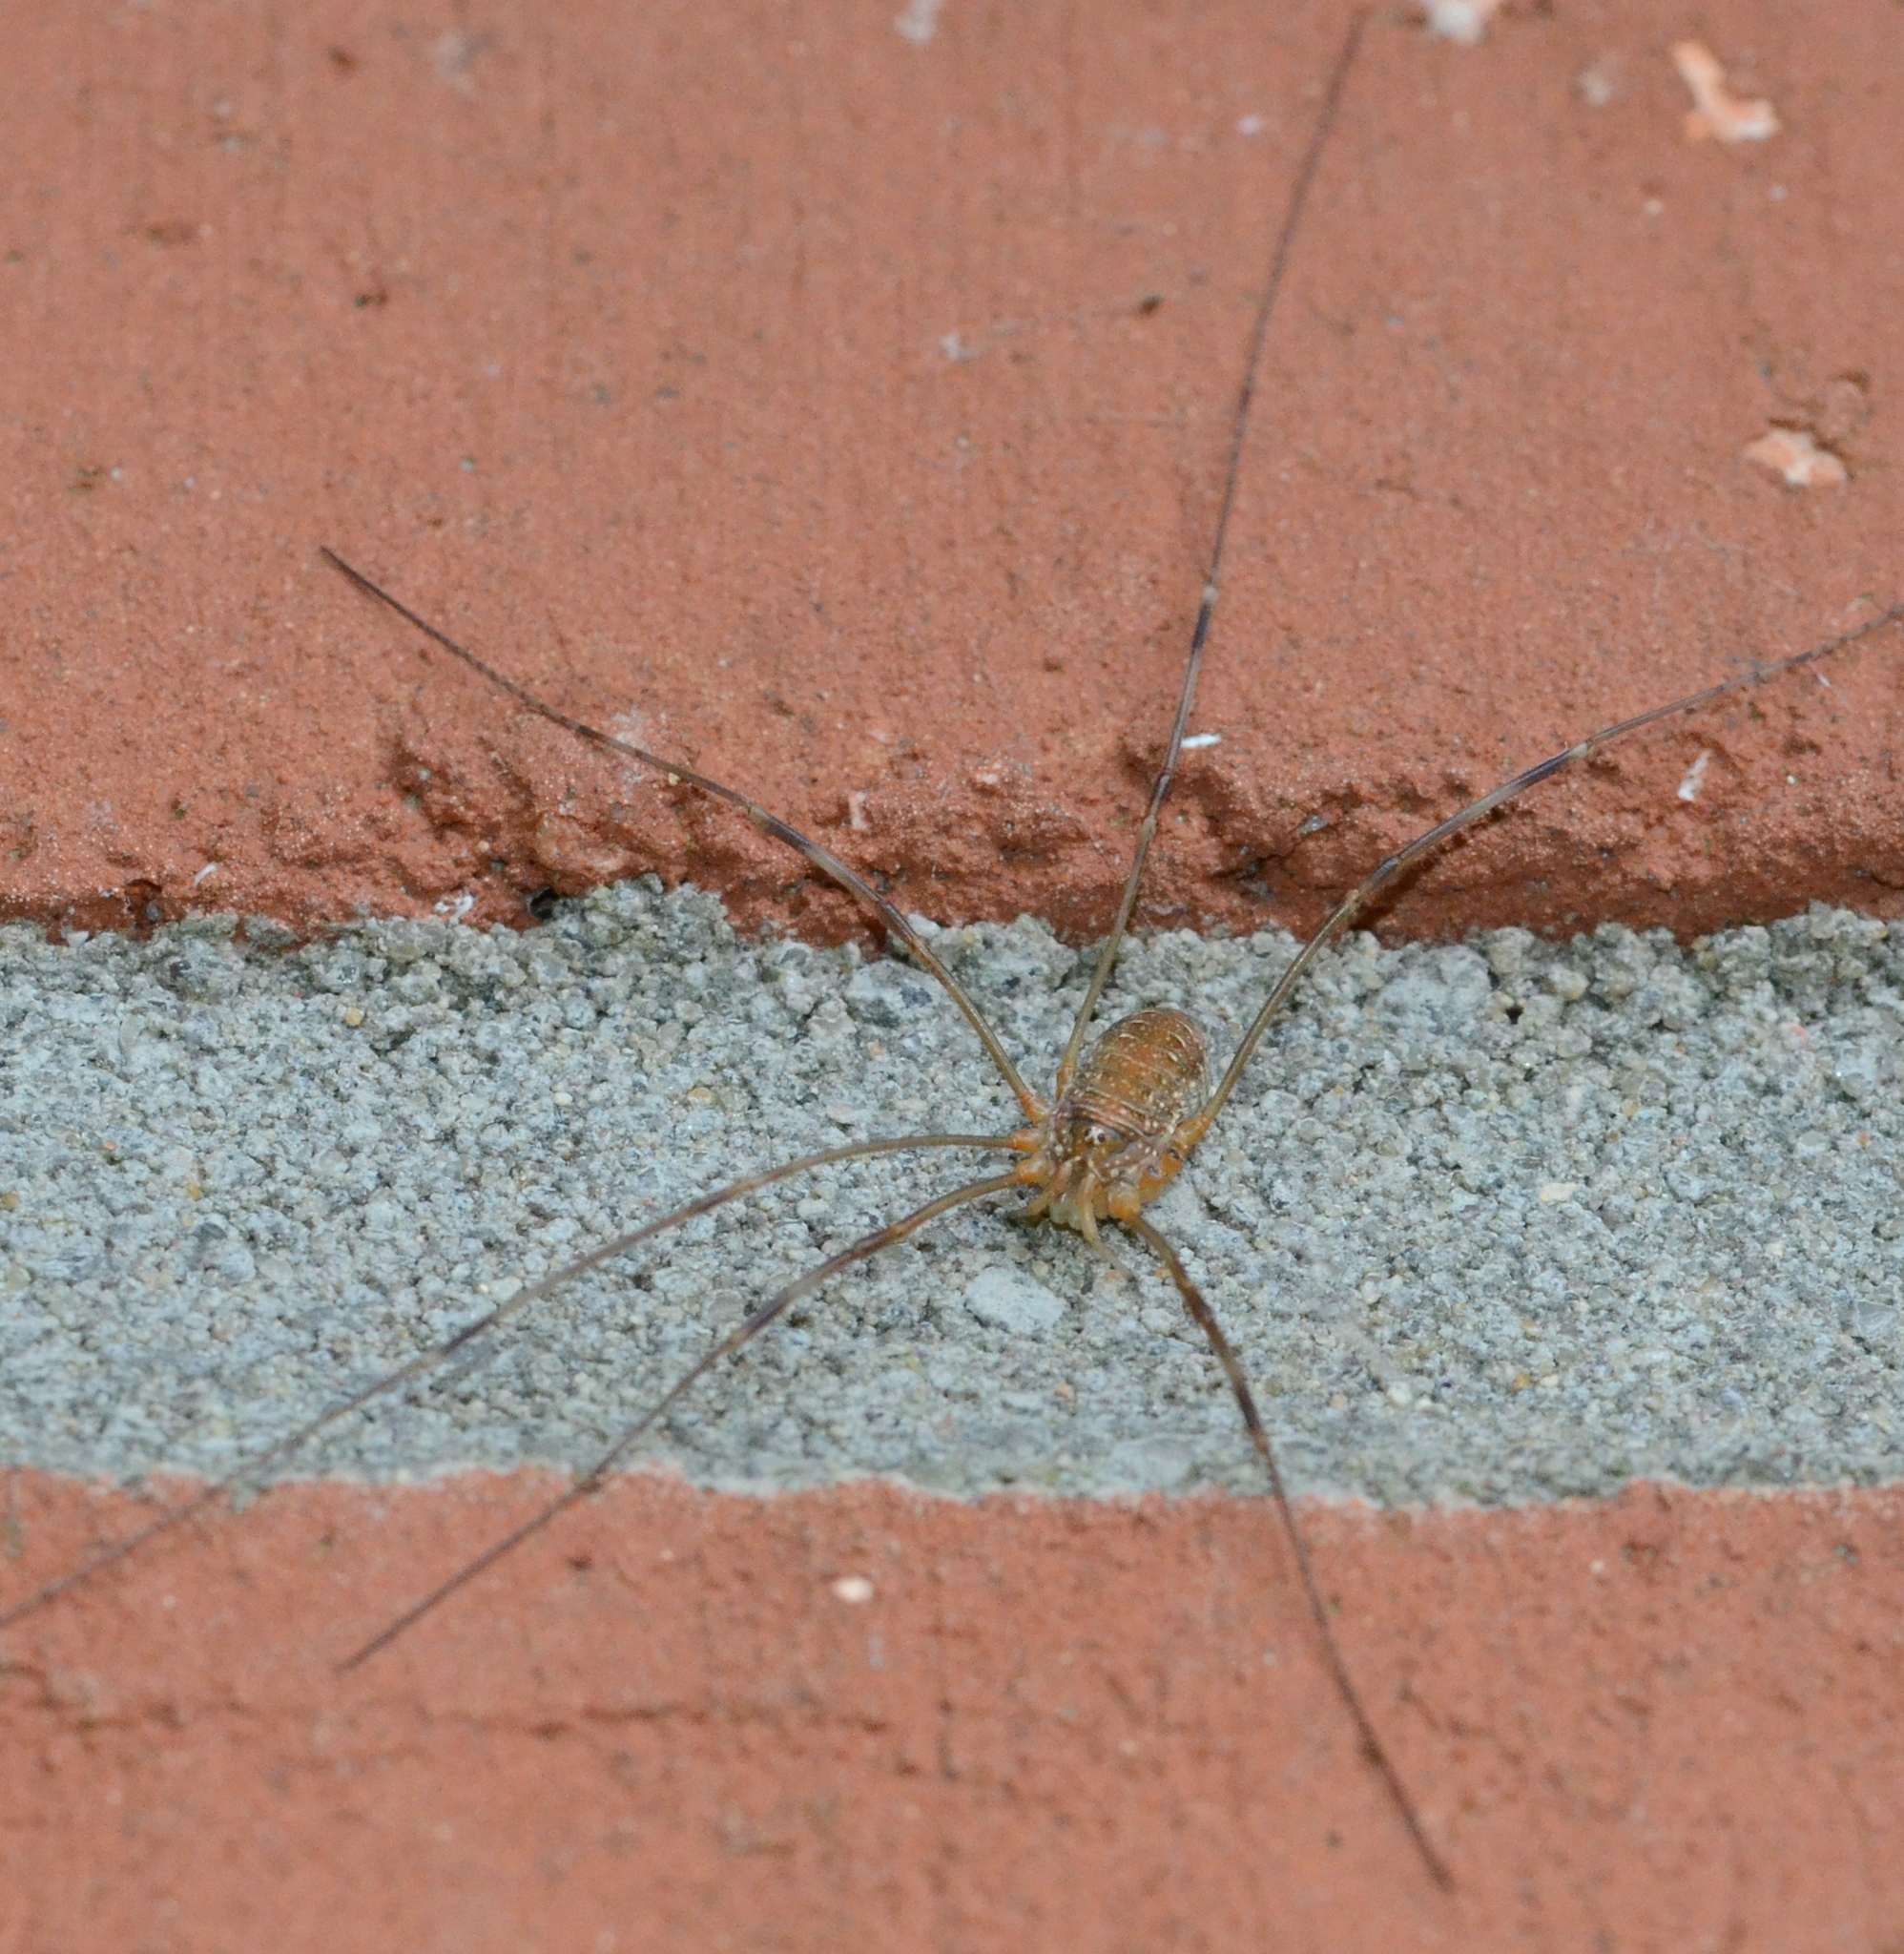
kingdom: Animalia
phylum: Arthropoda
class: Arachnida
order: Opiliones
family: Phalangiidae
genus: Opilio
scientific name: Opilio canestrinii
